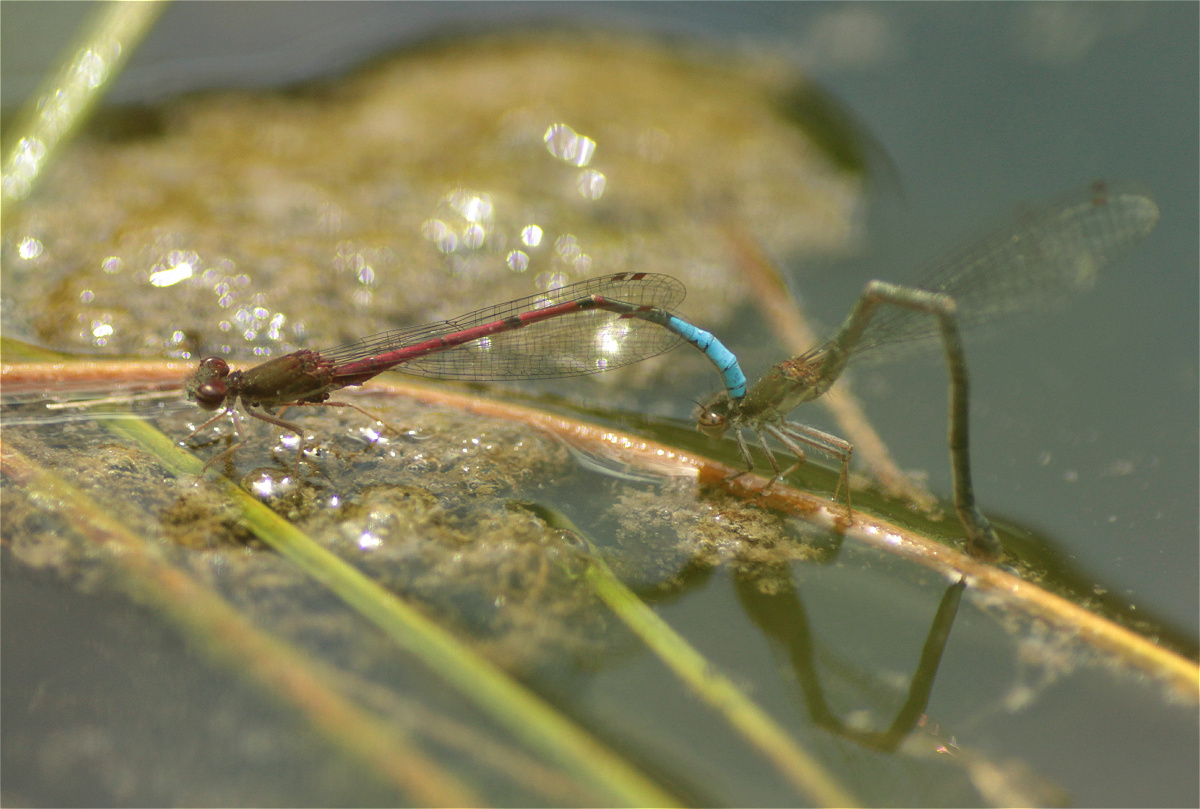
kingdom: Animalia
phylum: Arthropoda
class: Insecta
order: Odonata
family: Coenagrionidae
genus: Oxyallagma
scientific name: Oxyallagma dissidens
